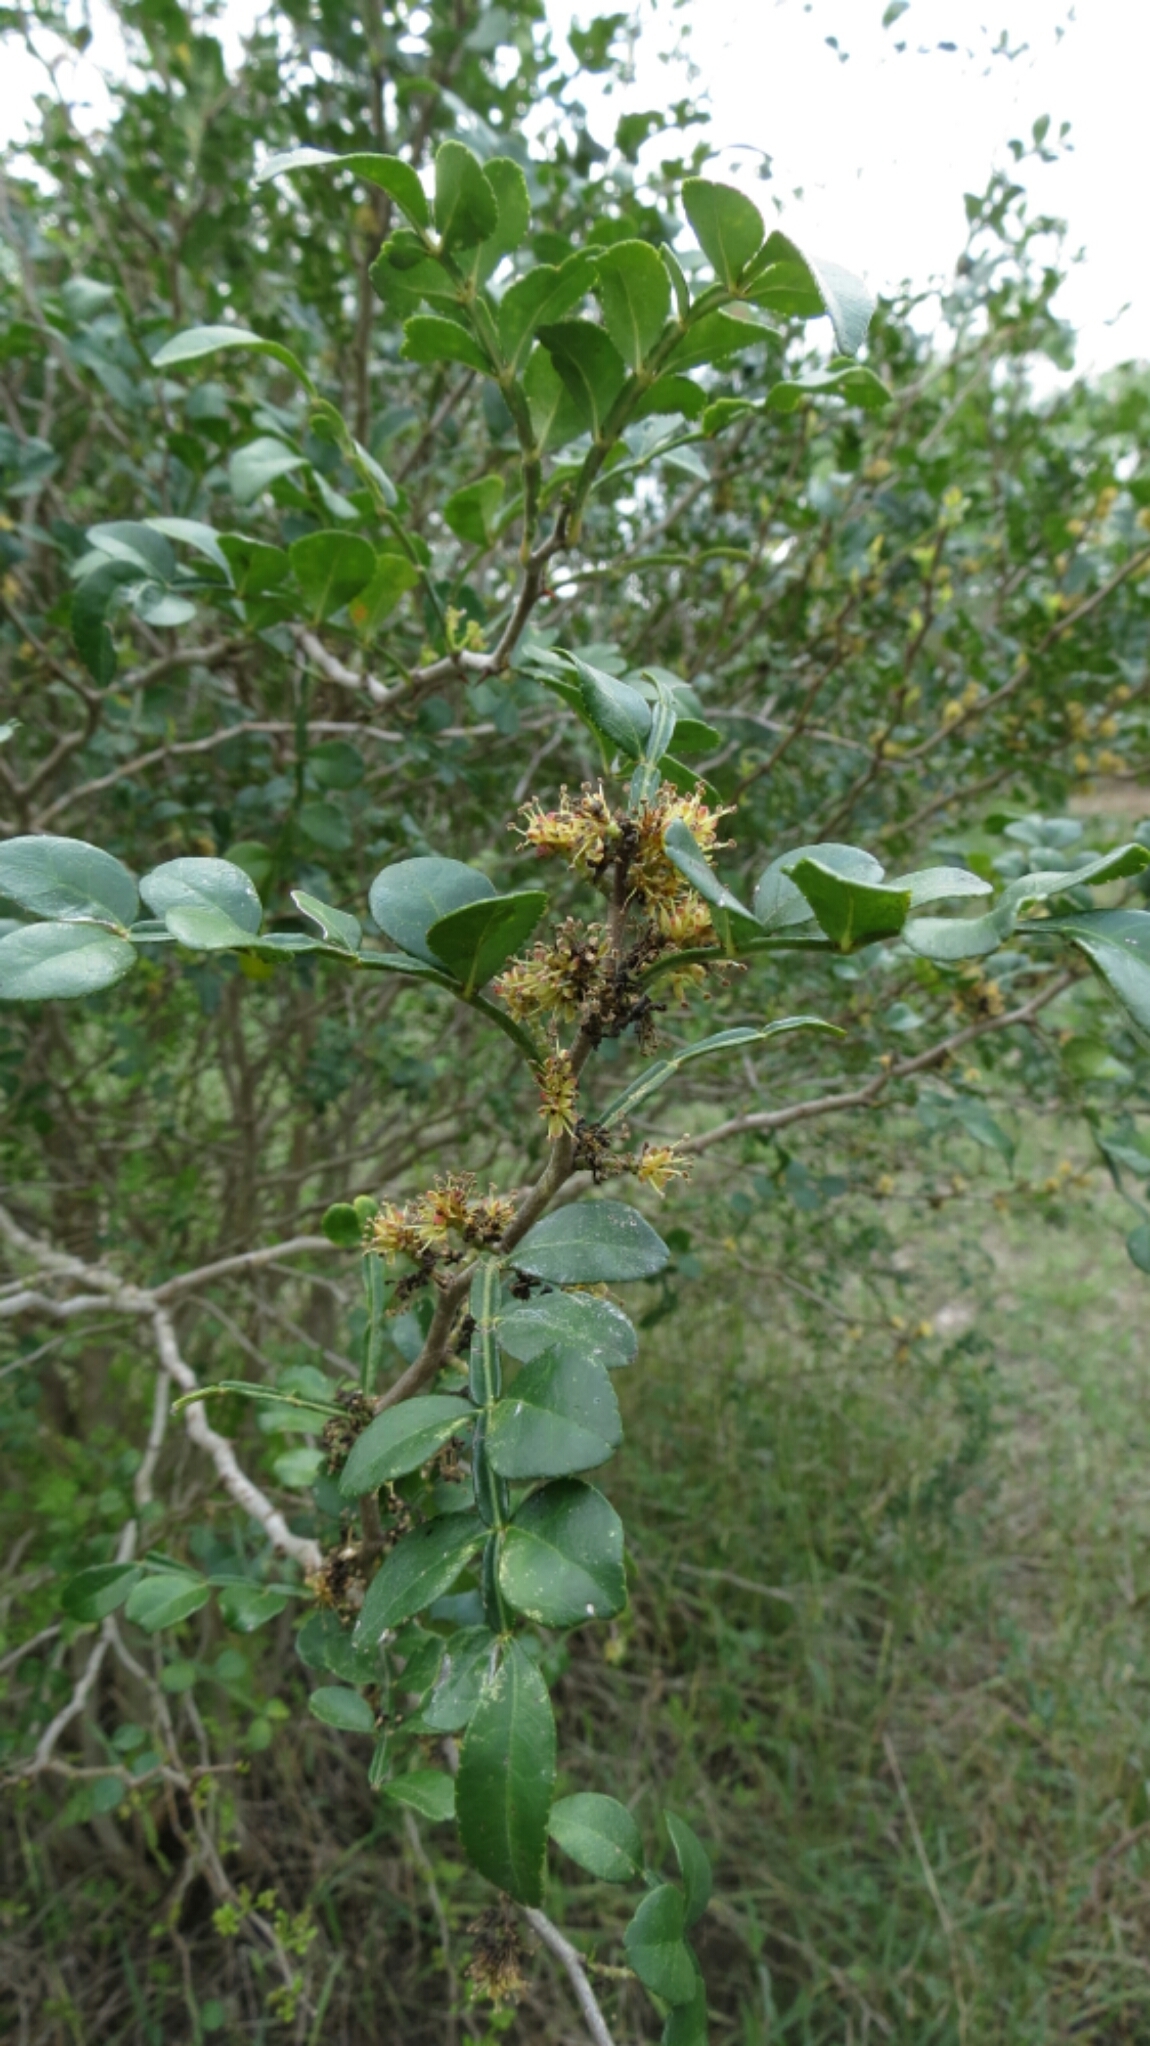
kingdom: Plantae
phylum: Tracheophyta
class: Magnoliopsida
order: Sapindales
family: Rutaceae
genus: Zanthoxylum
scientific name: Zanthoxylum fagara
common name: Lime prickly-ash
